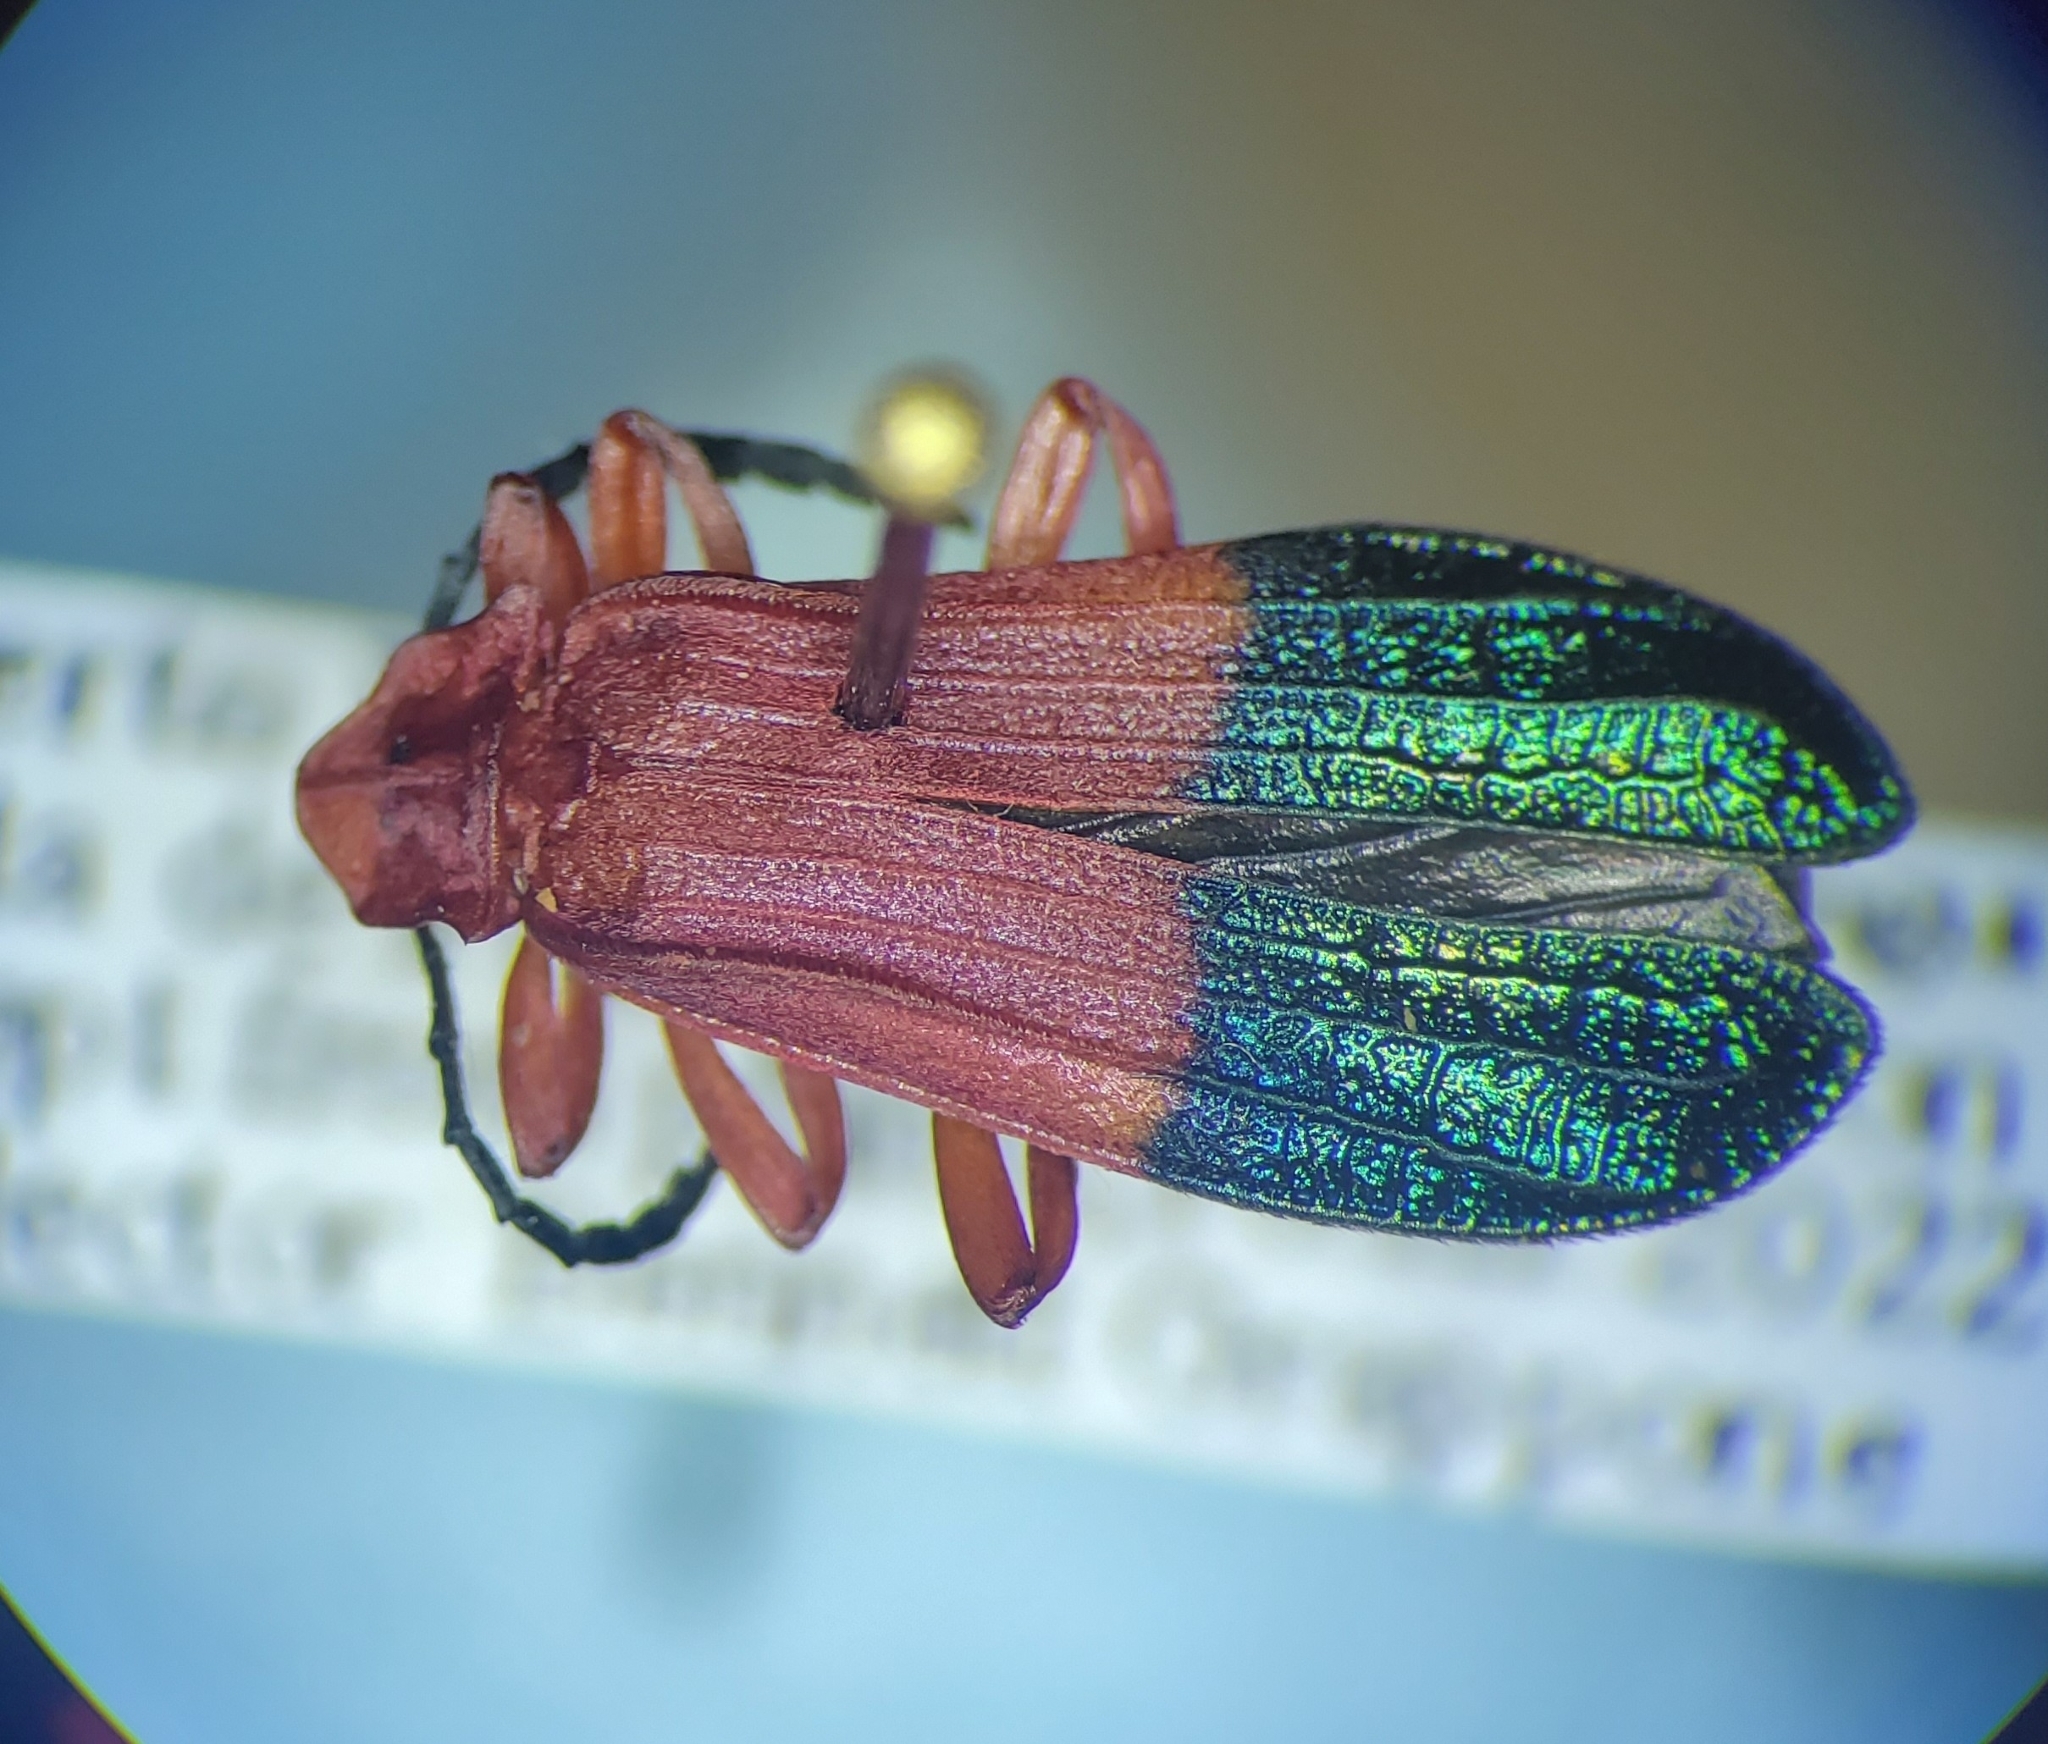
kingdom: Animalia
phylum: Arthropoda
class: Insecta
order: Coleoptera
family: Lycidae
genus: Thonalmus
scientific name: Thonalmus bicolor
